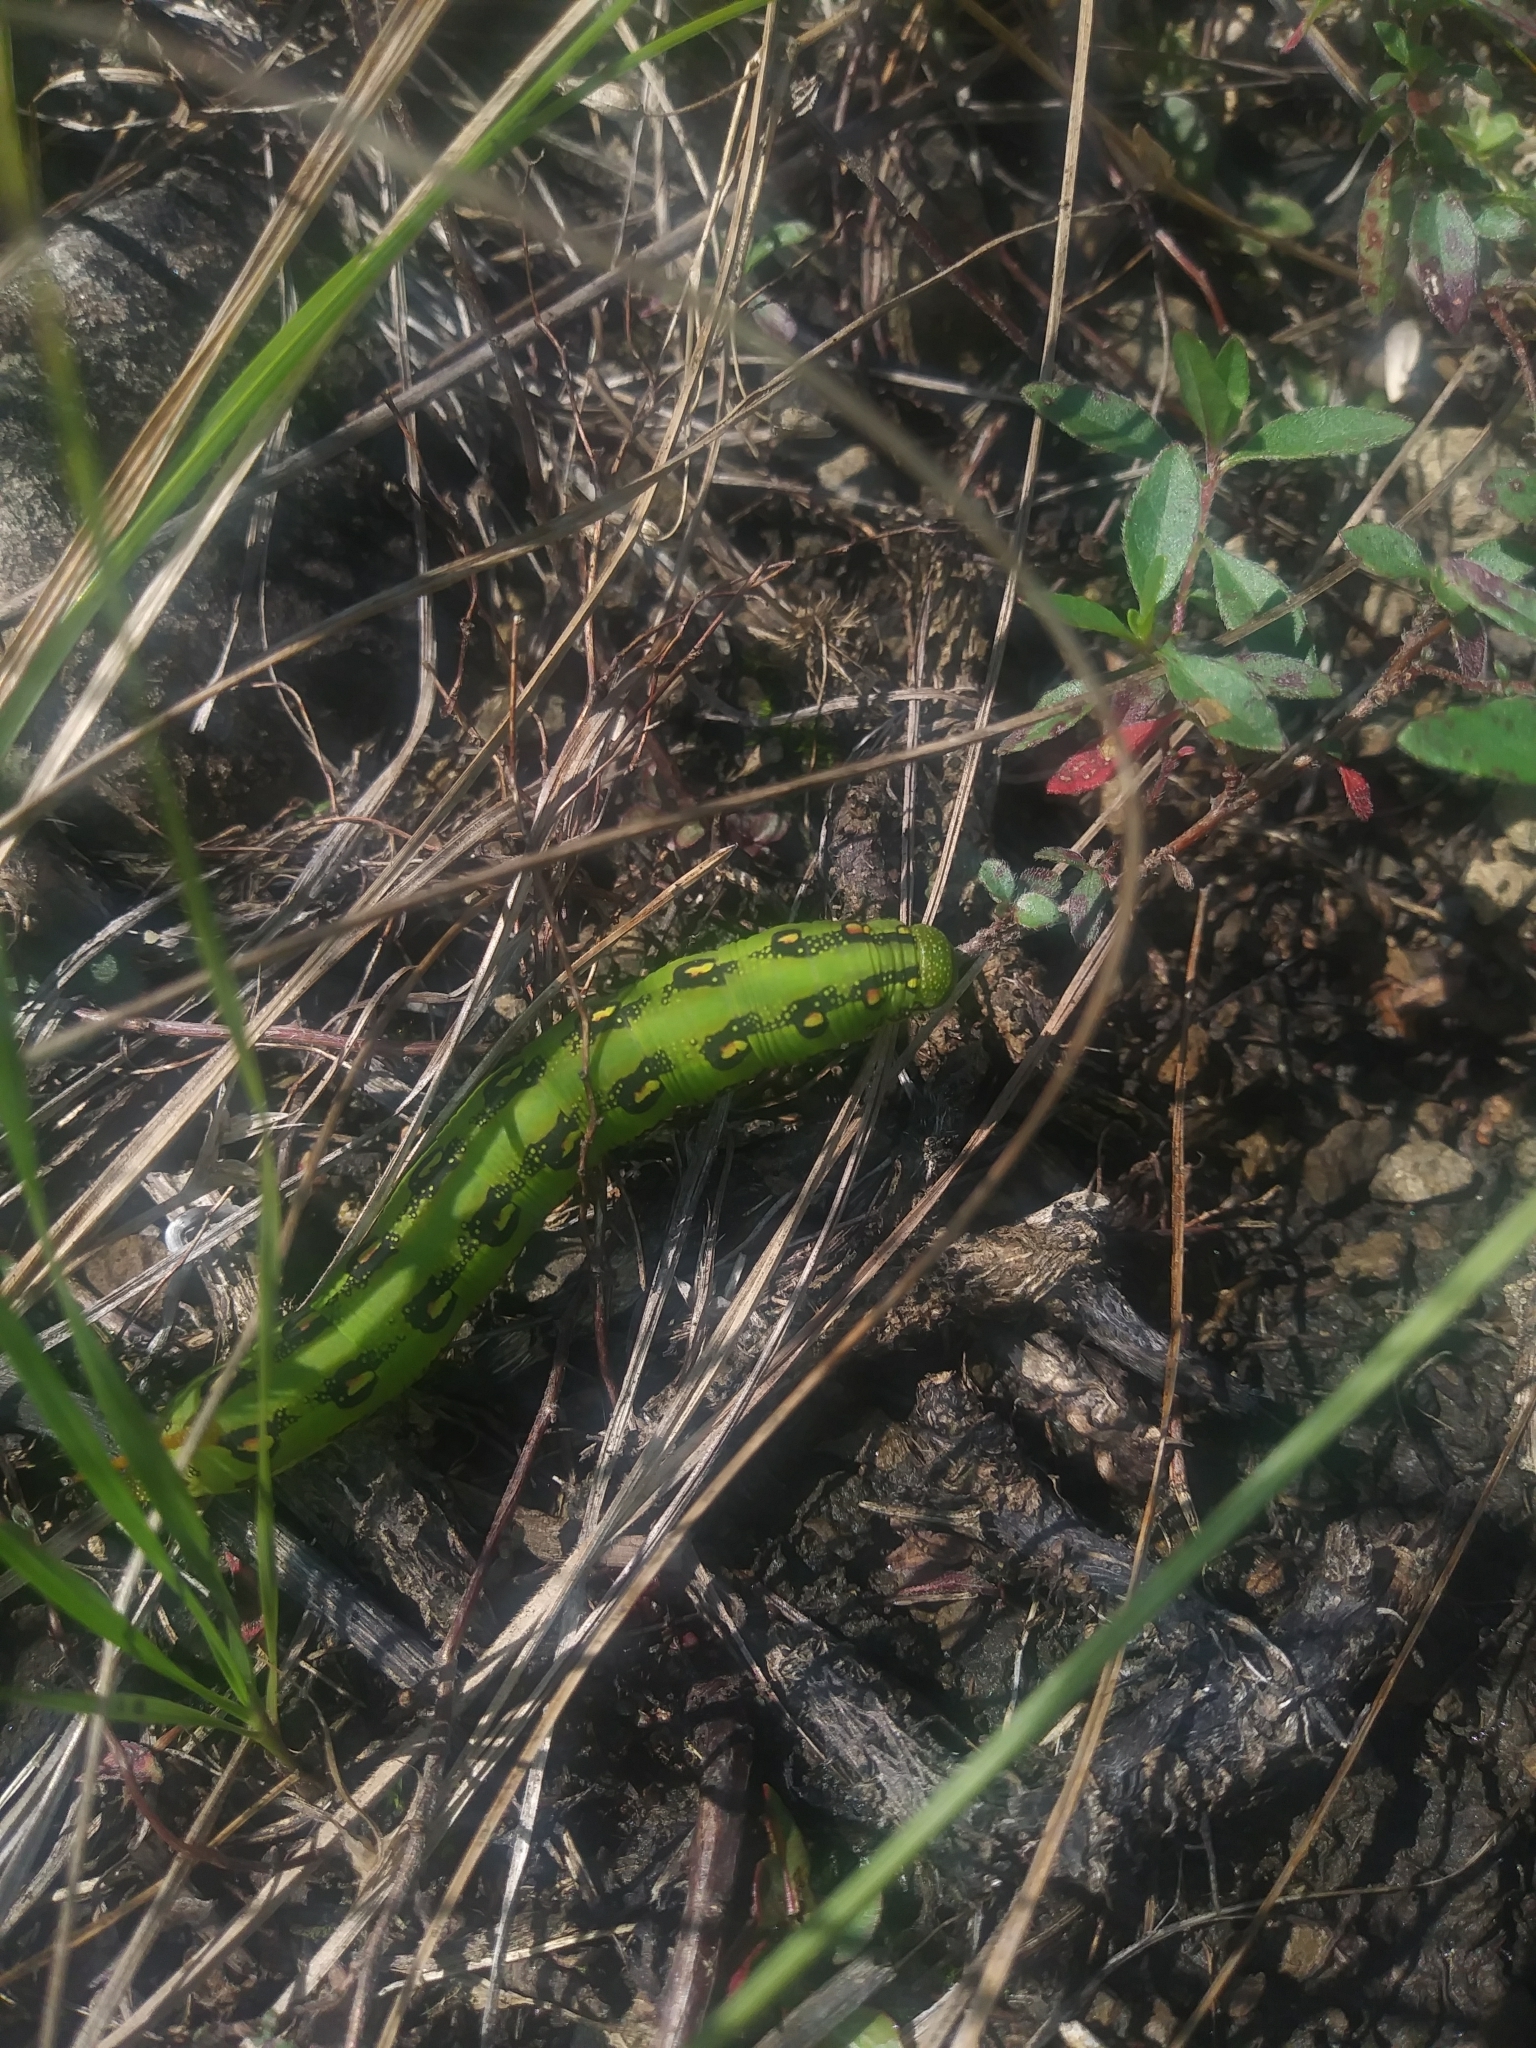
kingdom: Animalia
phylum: Arthropoda
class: Insecta
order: Lepidoptera
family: Sphingidae
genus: Hyles
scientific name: Hyles lineata
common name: White-lined sphinx
